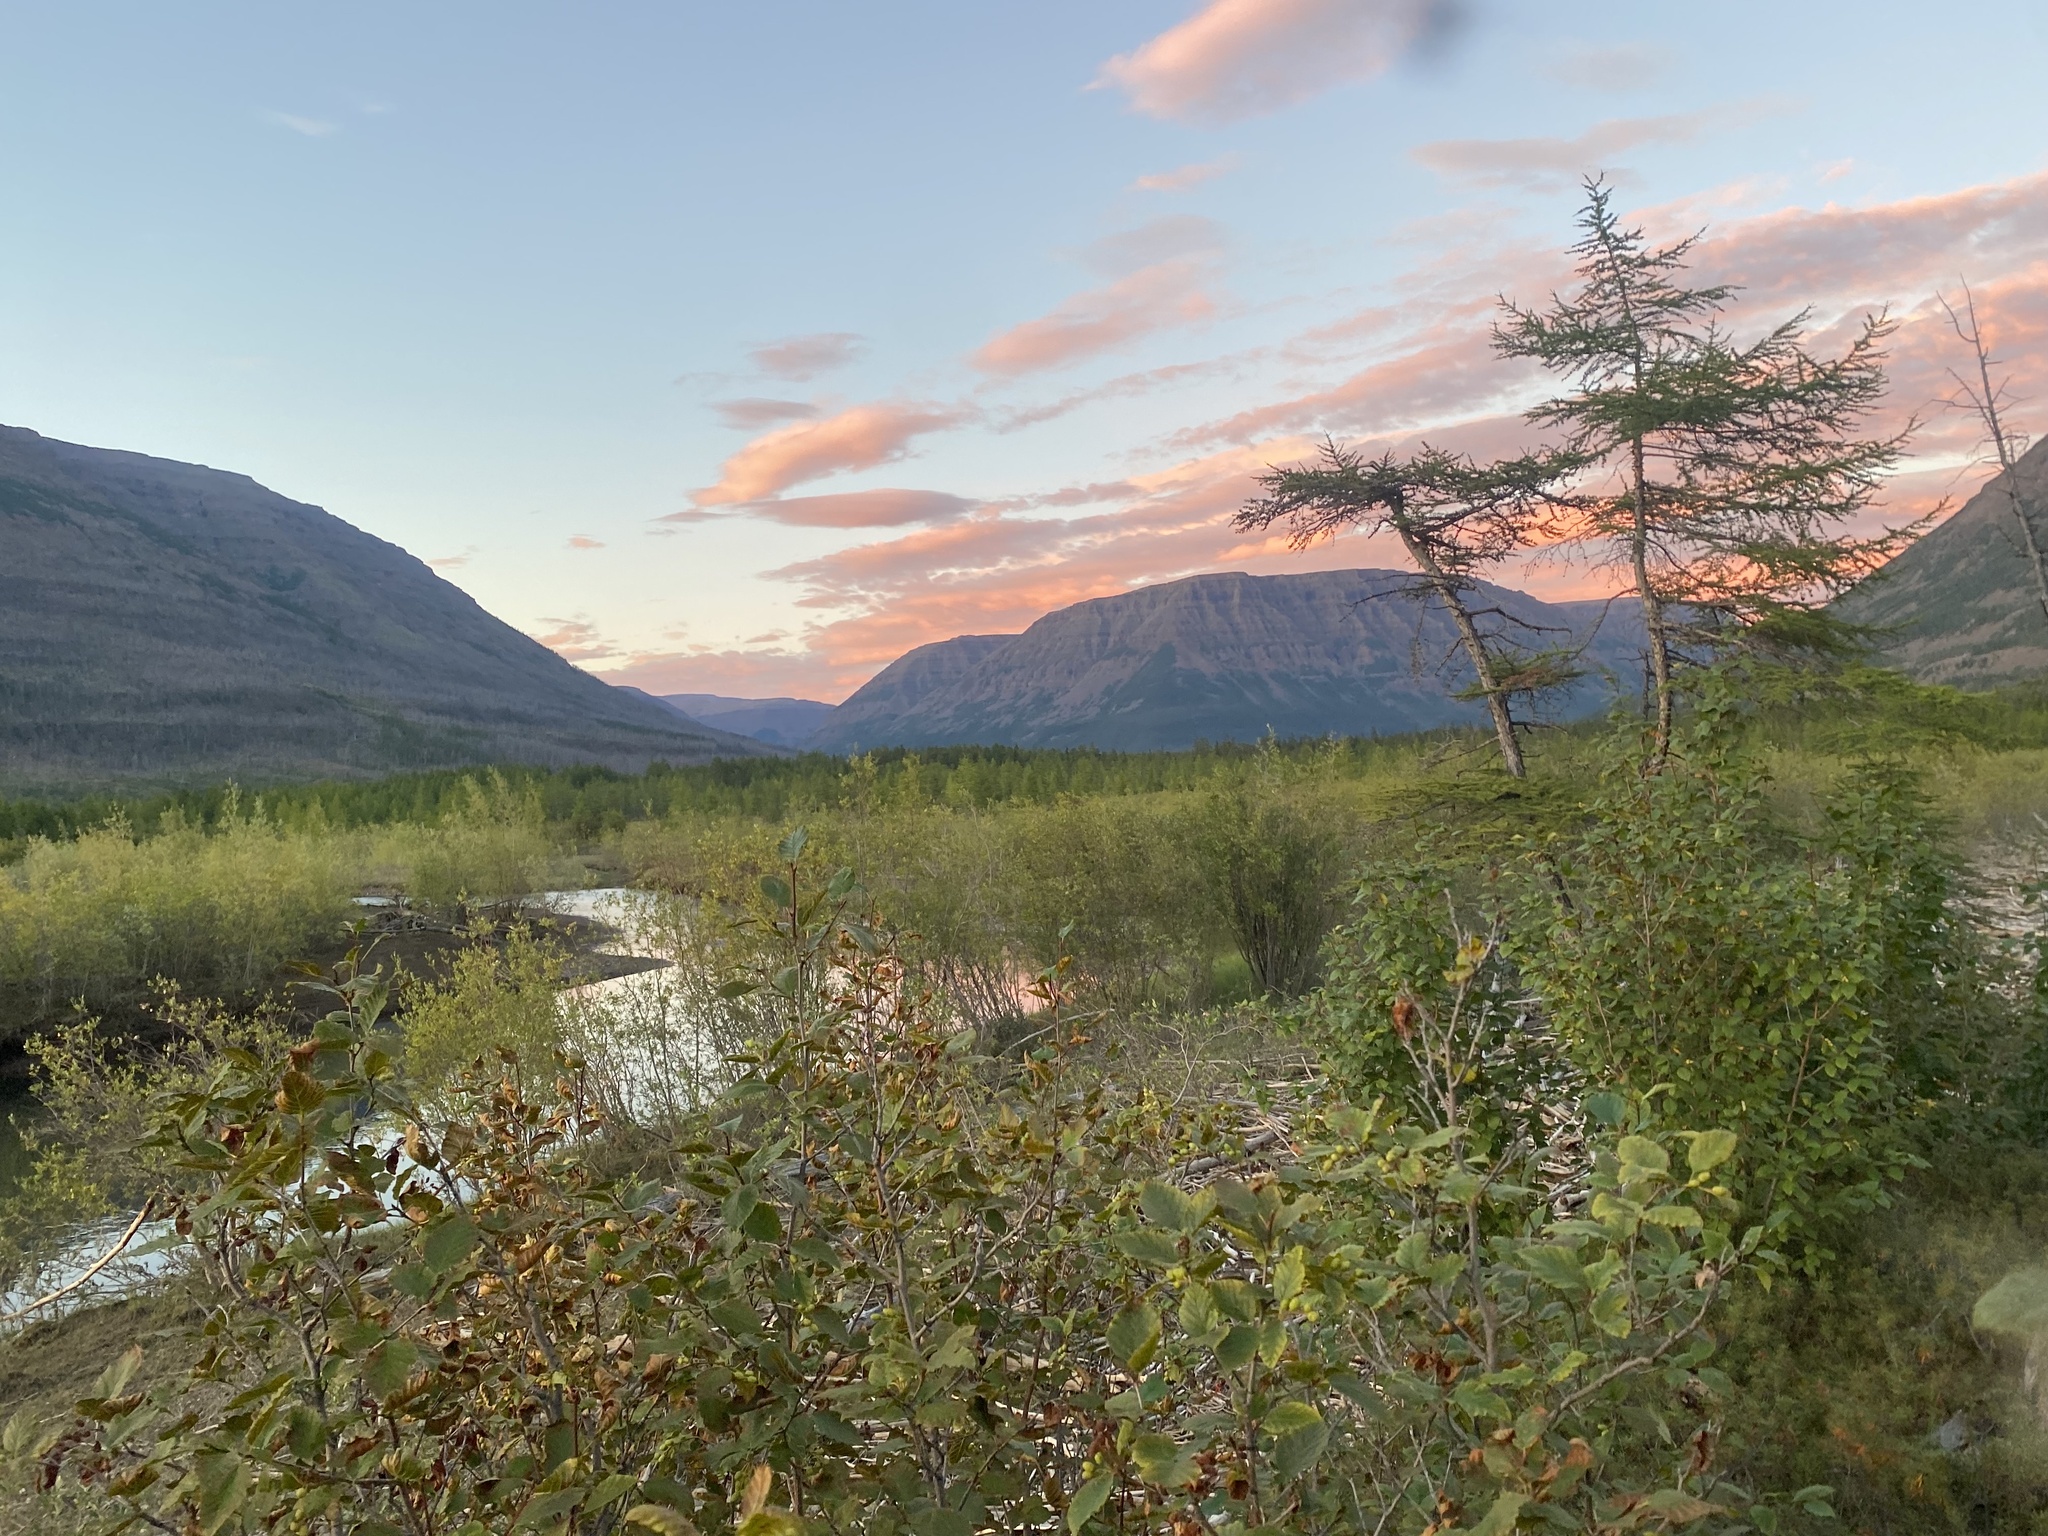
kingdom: Plantae
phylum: Tracheophyta
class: Magnoliopsida
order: Fagales
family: Betulaceae
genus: Alnus
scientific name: Alnus alnobetula
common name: Green alder
